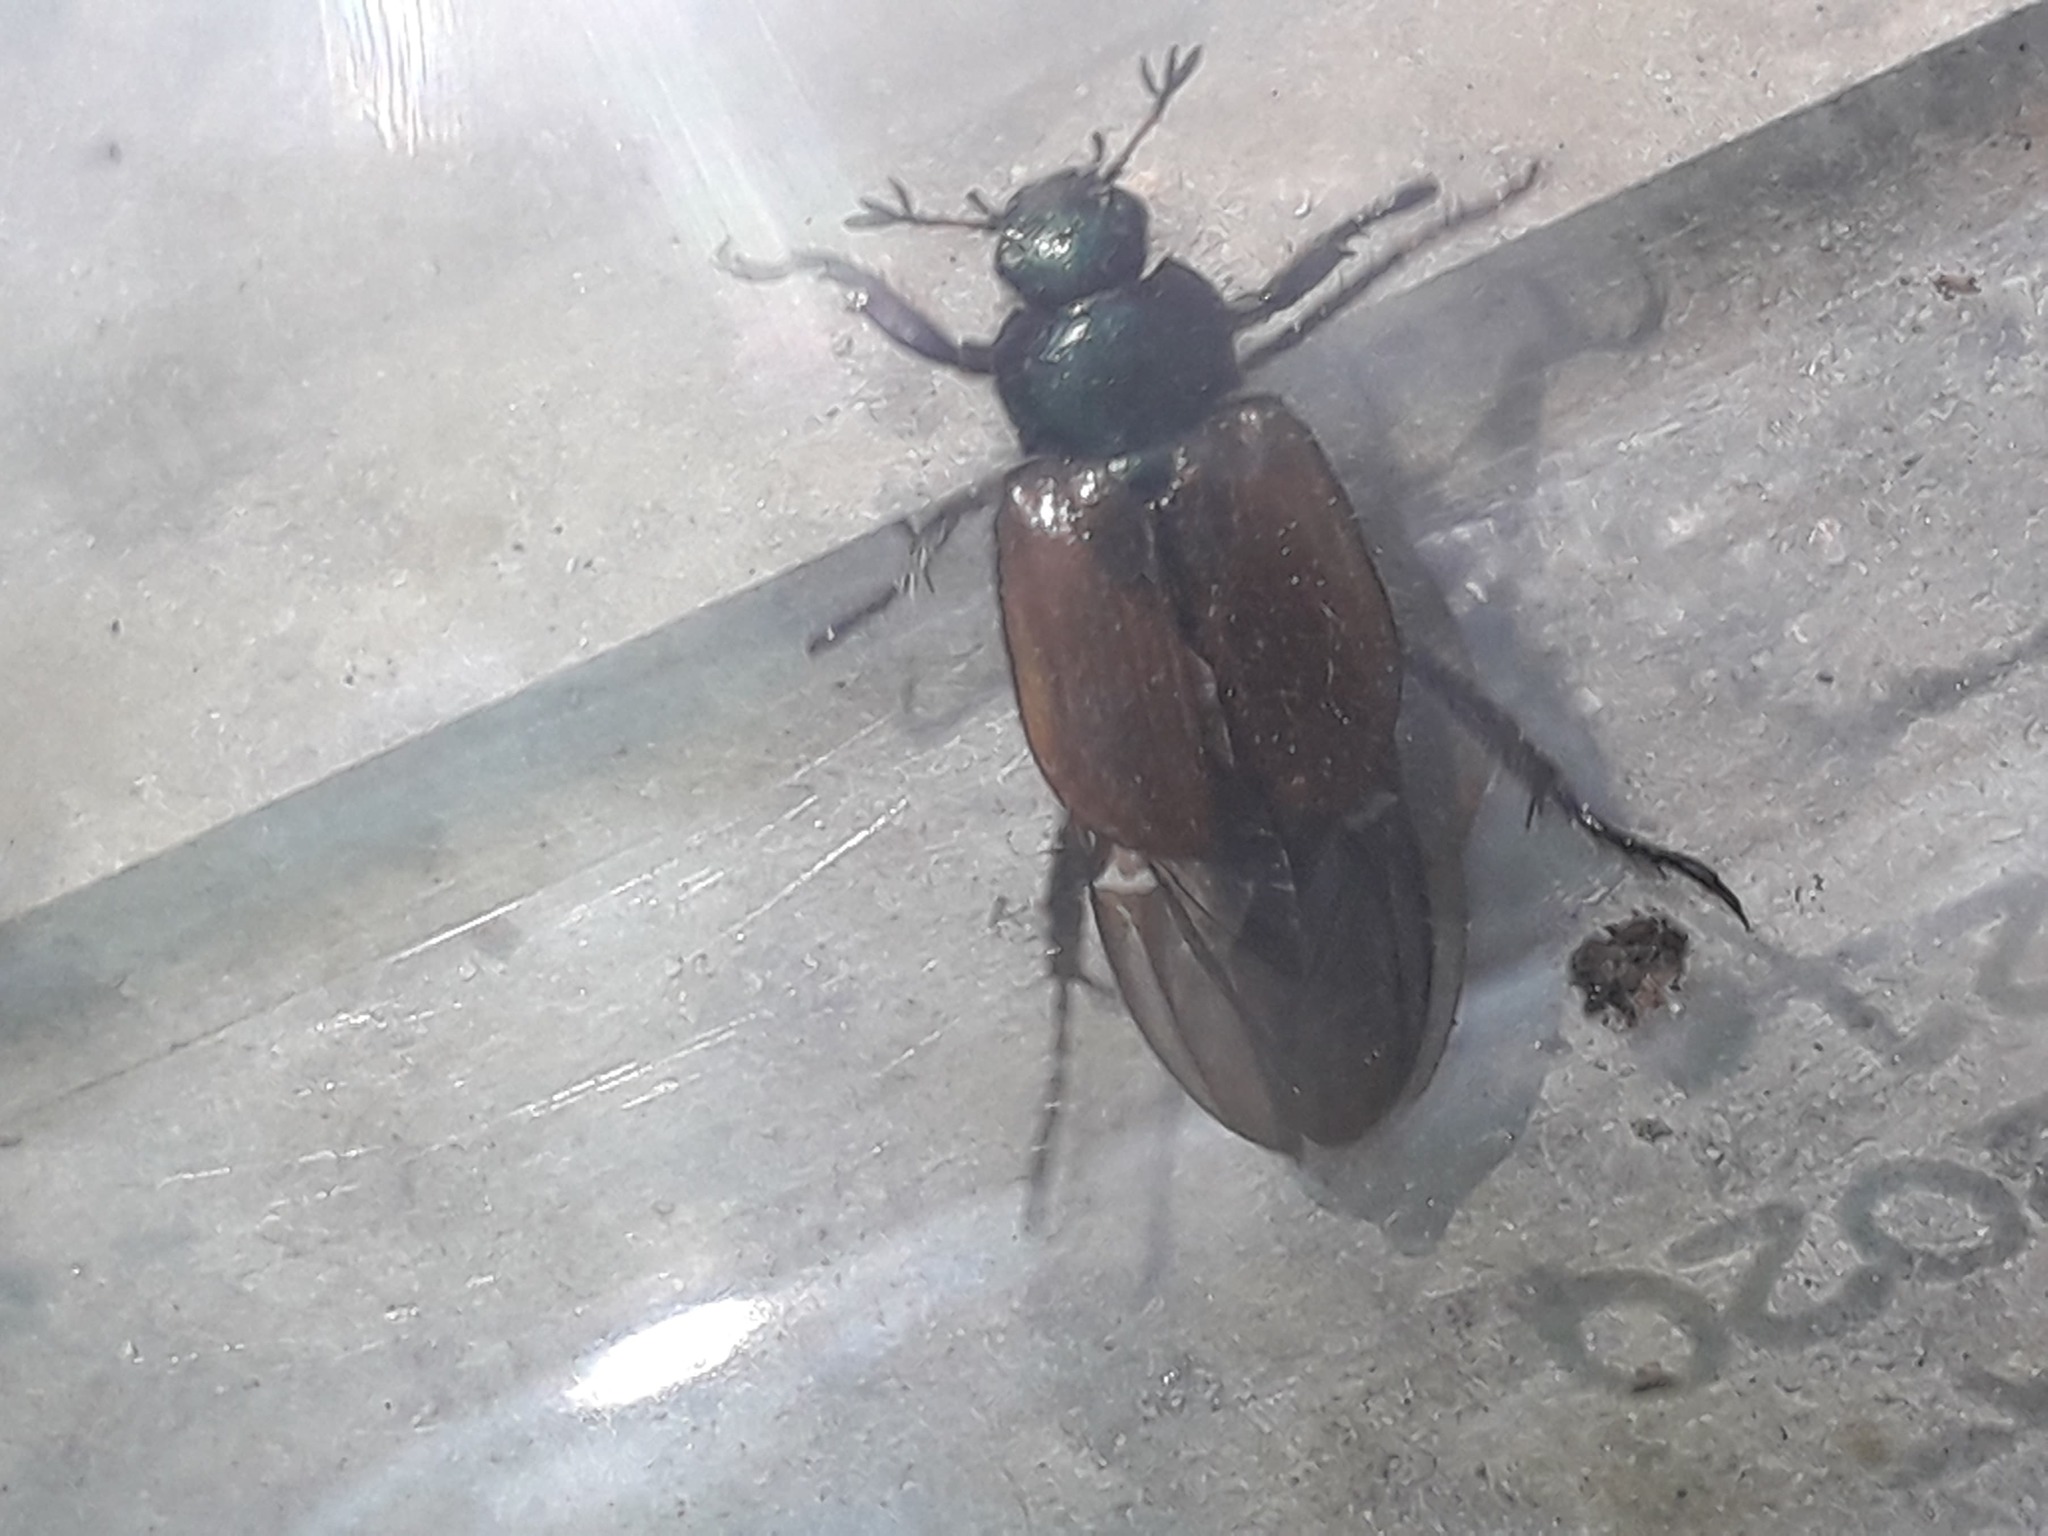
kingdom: Animalia
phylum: Arthropoda
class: Insecta
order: Coleoptera
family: Scarabaeidae
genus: Phyllopertha
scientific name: Phyllopertha horticola
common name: Garden chafer
